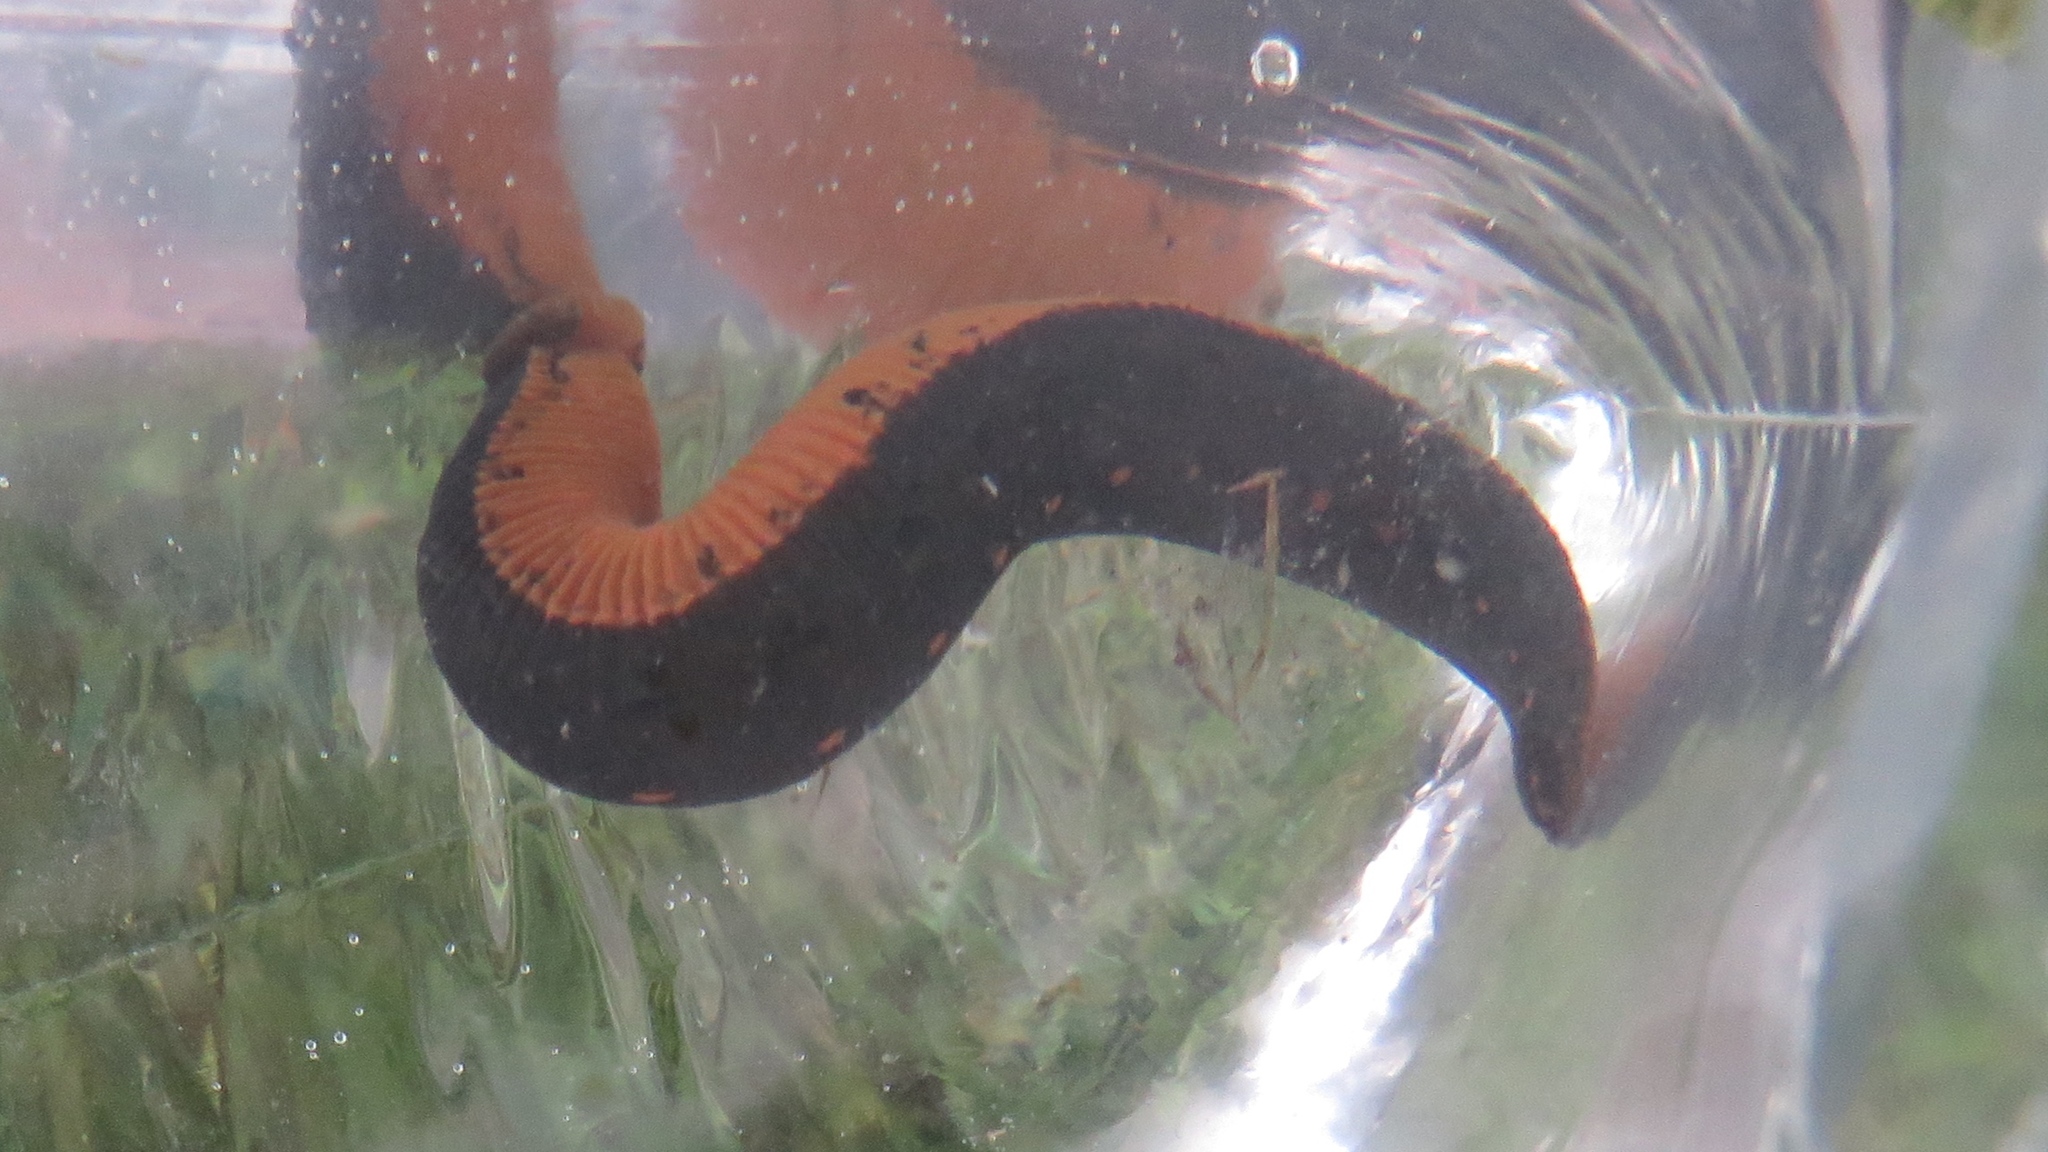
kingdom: Animalia
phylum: Annelida
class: Clitellata
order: Arhynchobdellida
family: Hirudinidae
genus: Macrobdella
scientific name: Macrobdella decora
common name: North american leech
